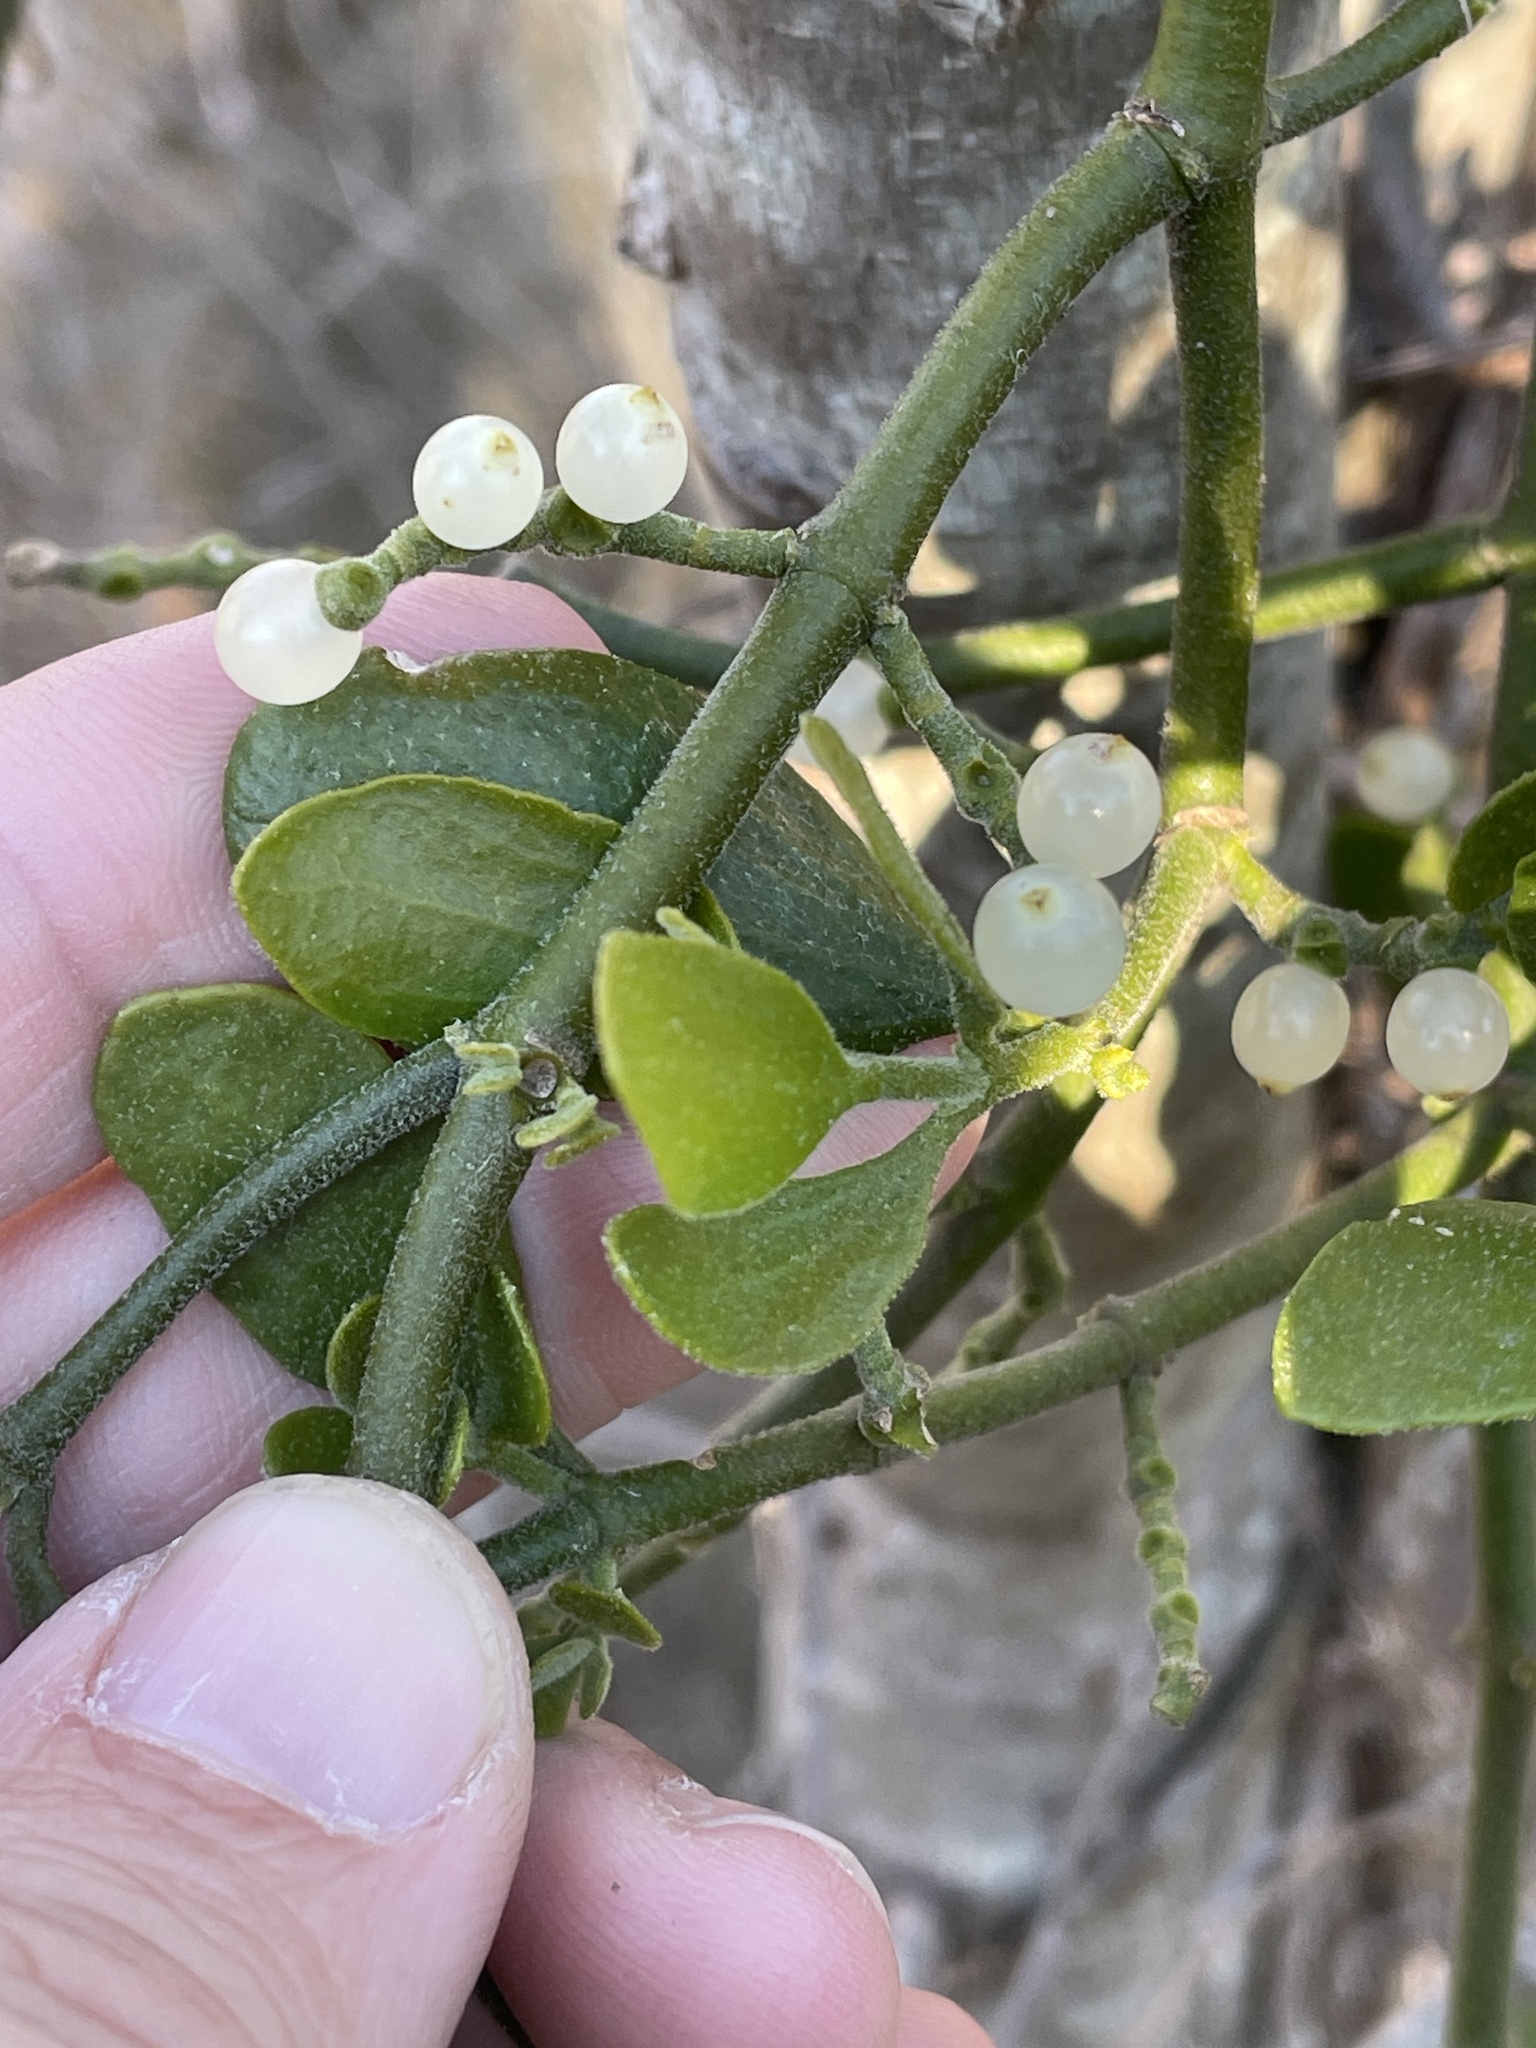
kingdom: Plantae
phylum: Tracheophyta
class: Magnoliopsida
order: Santalales
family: Viscaceae
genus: Phoradendron
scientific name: Phoradendron leucarpum
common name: Pacific mistletoe
